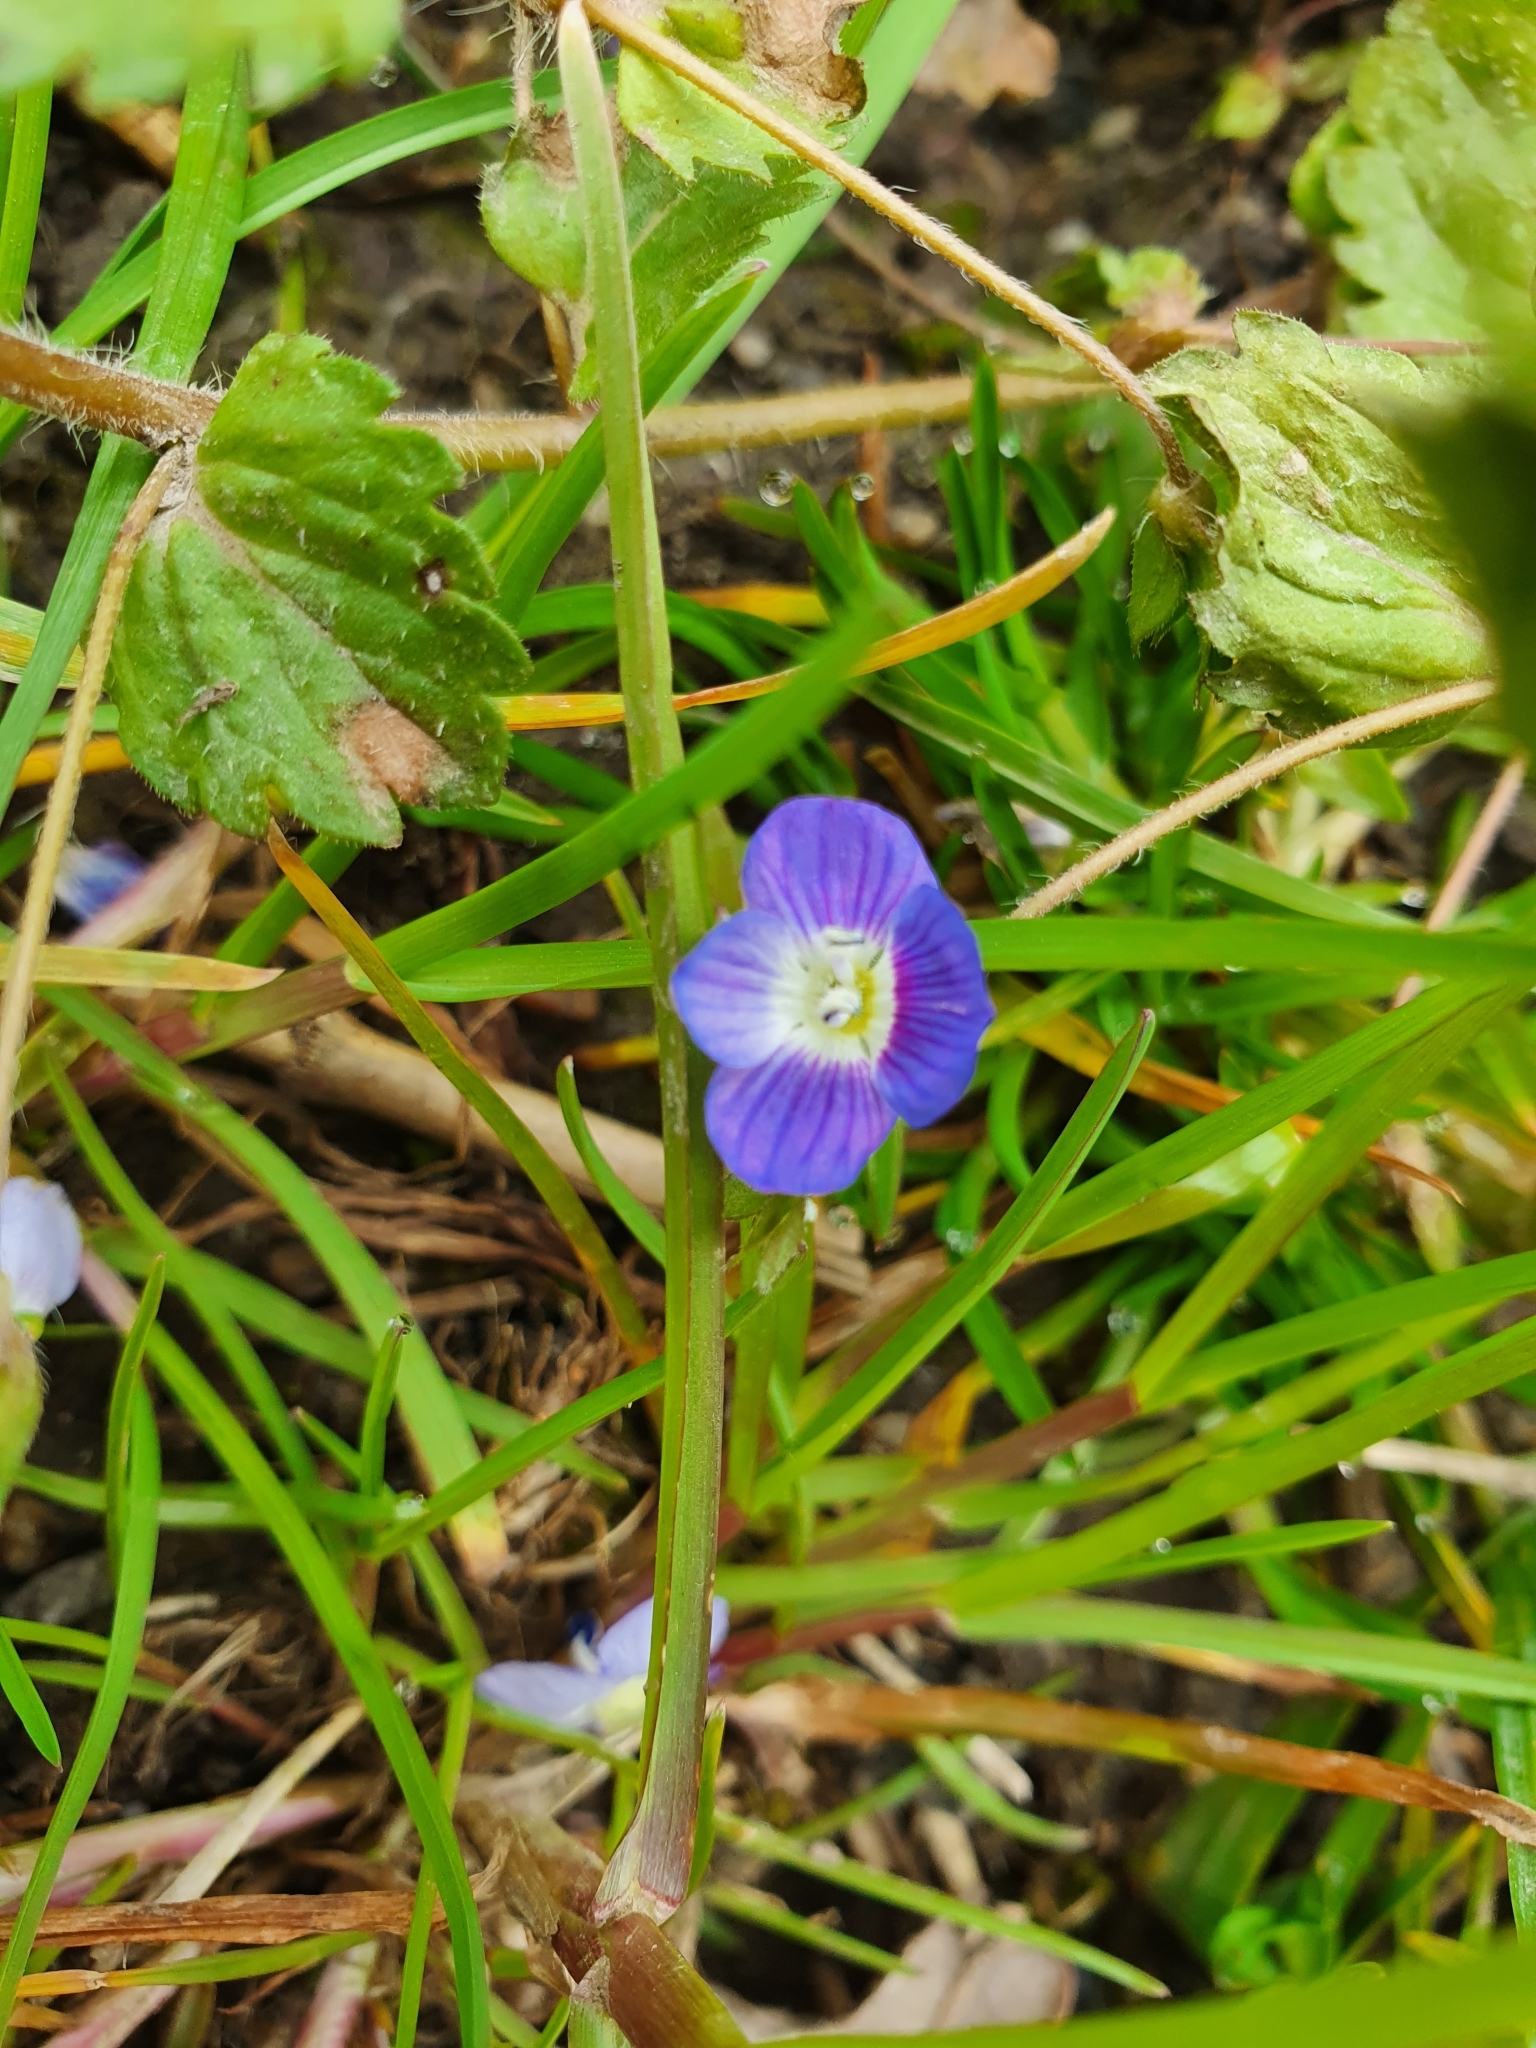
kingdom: Plantae
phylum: Tracheophyta
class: Magnoliopsida
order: Lamiales
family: Plantaginaceae
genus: Veronica
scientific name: Veronica persica
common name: Common field-speedwell
